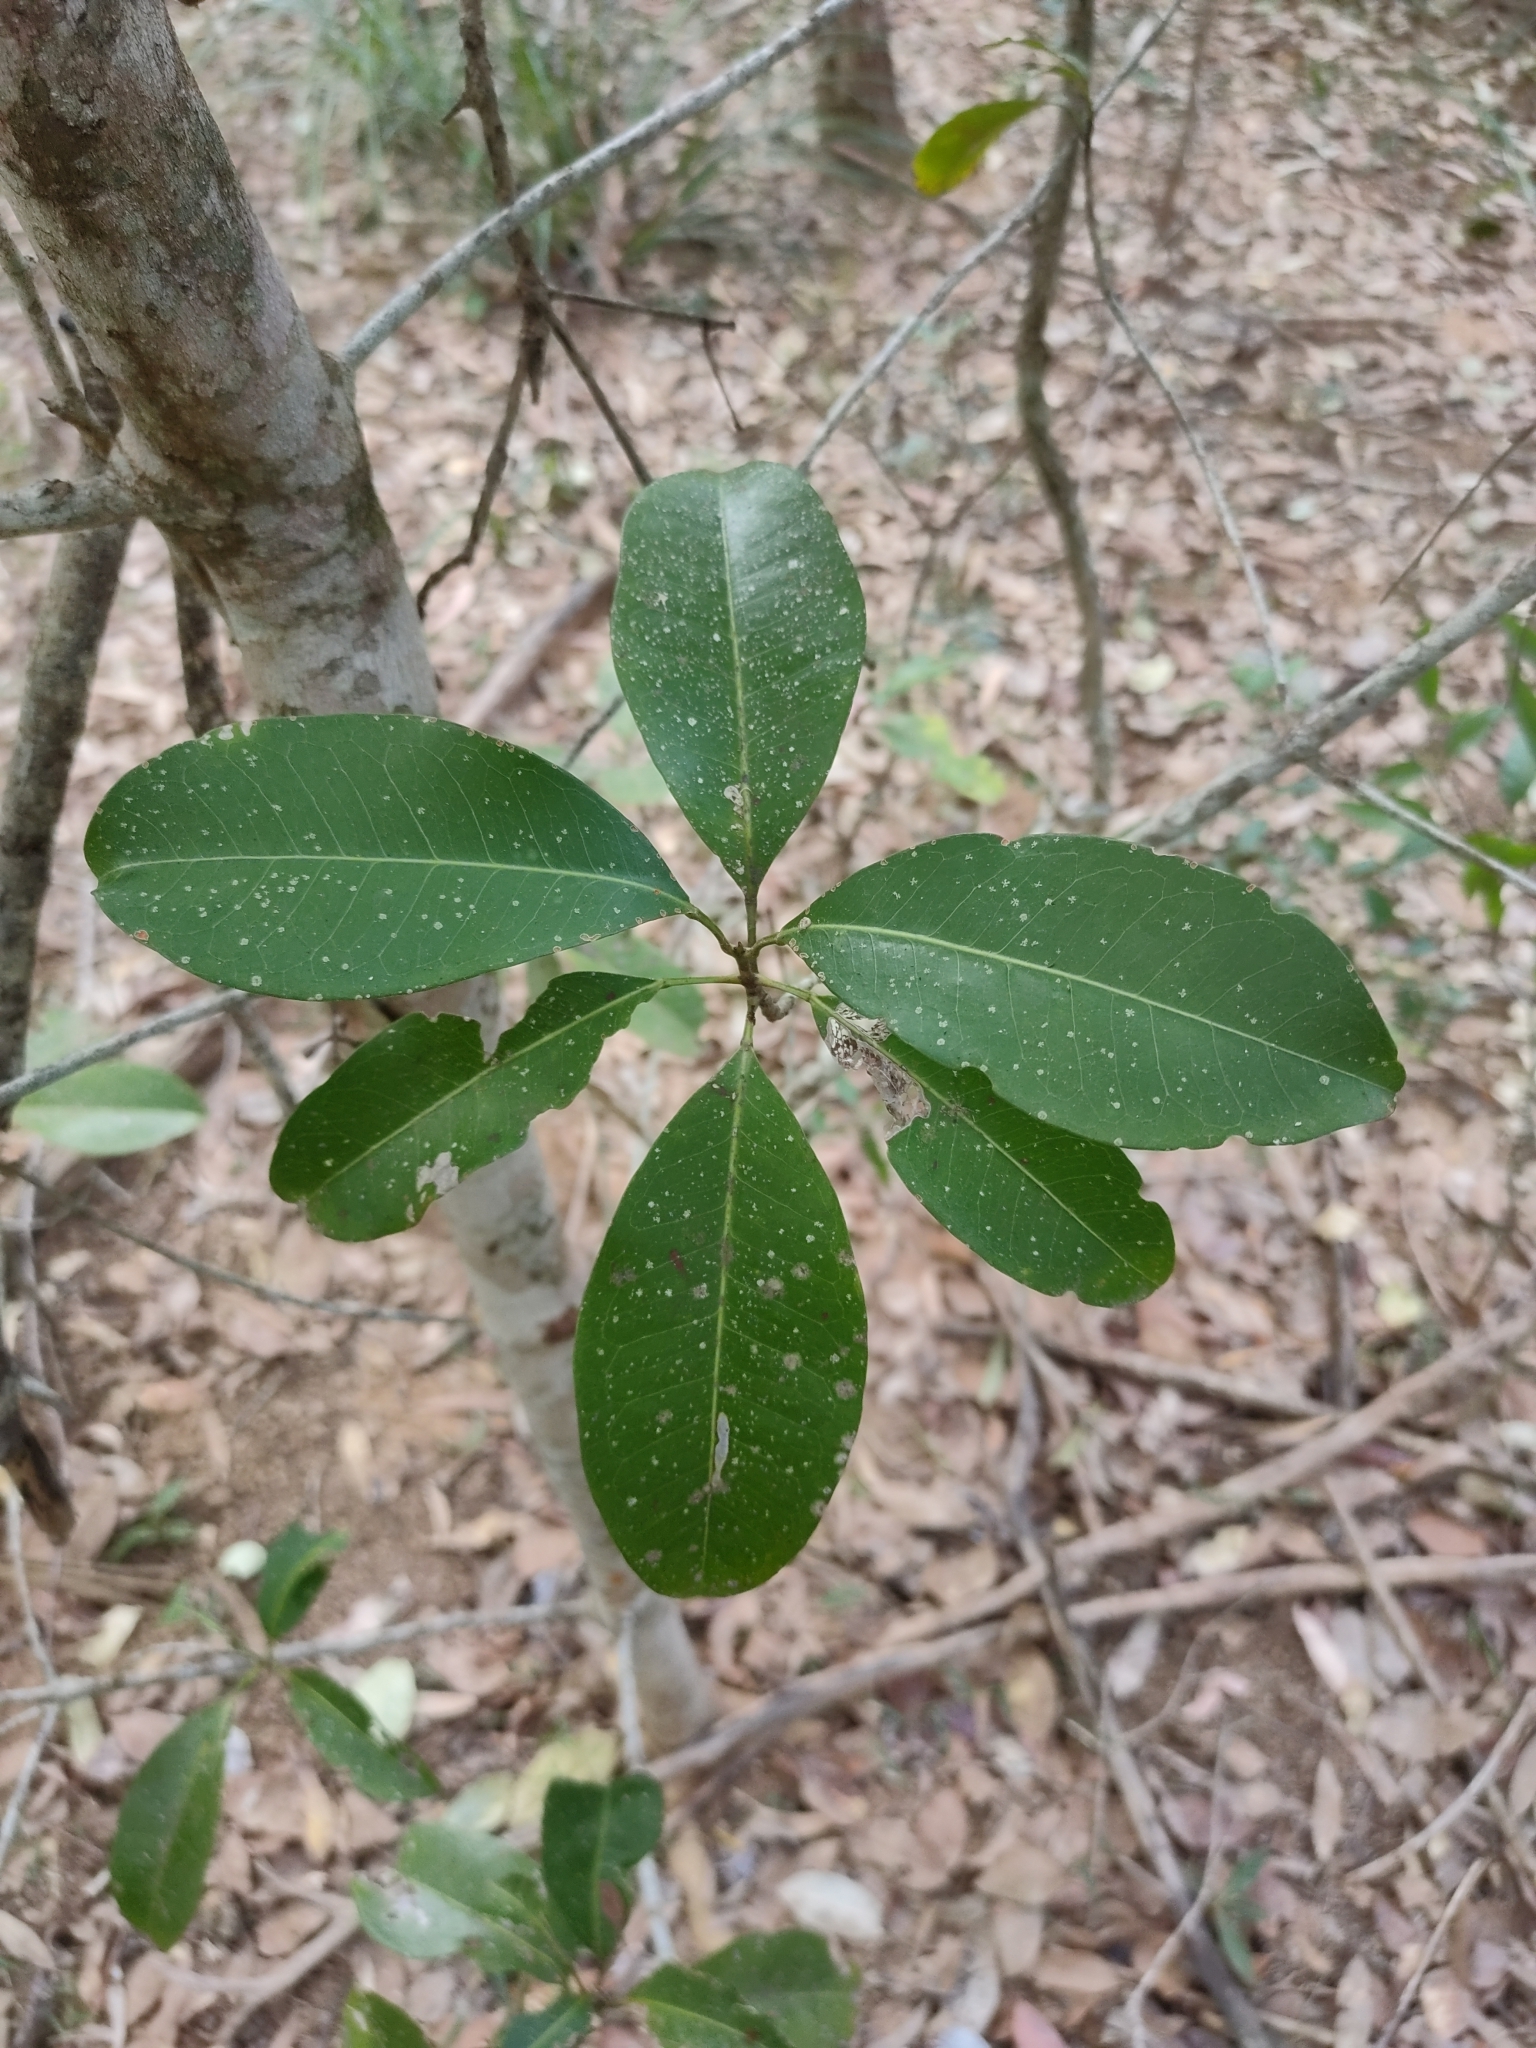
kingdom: Plantae
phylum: Tracheophyta
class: Magnoliopsida
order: Sapindales
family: Rutaceae
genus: Acronychia
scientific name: Acronychia imperforata
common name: Beach acronychia
